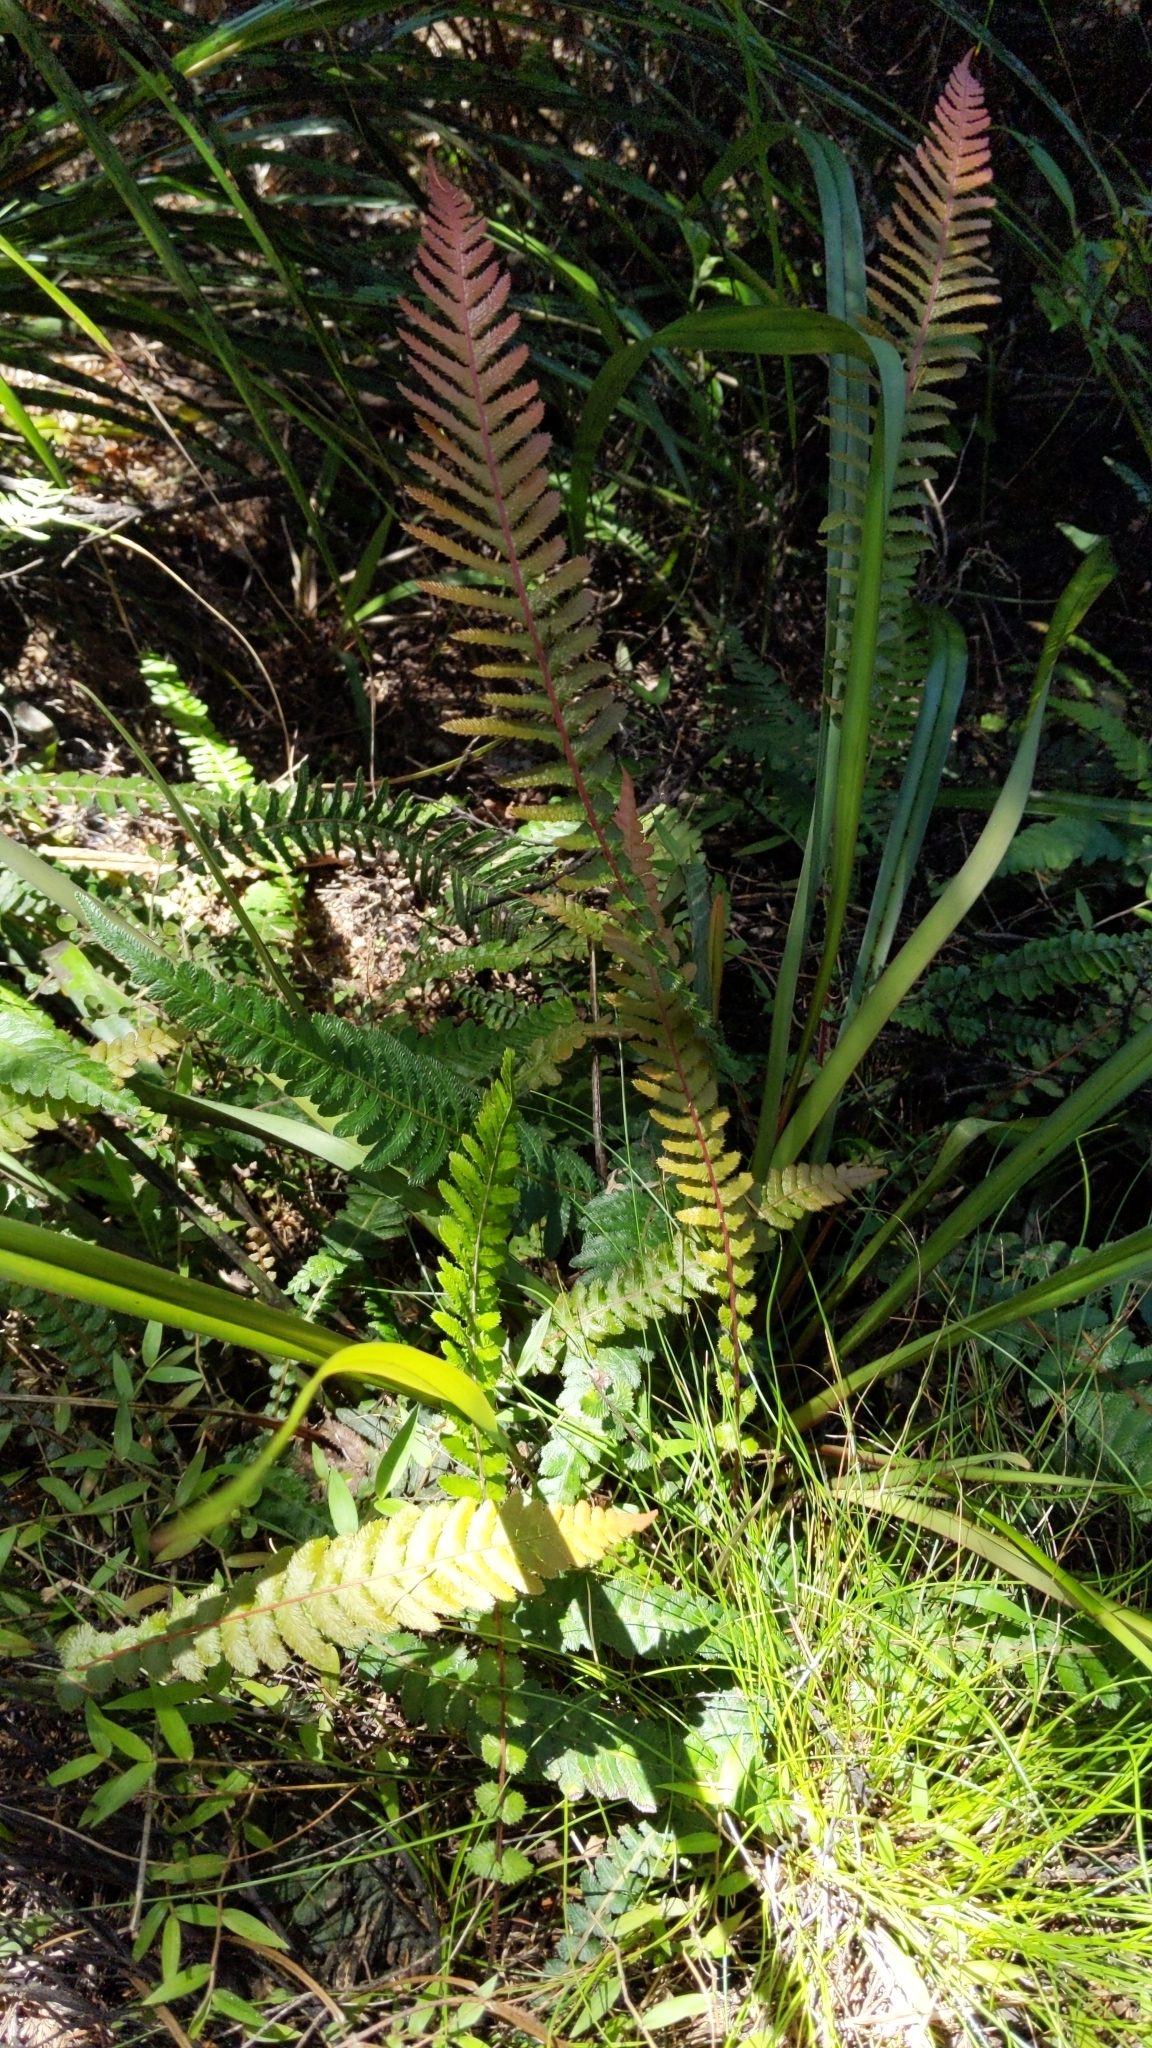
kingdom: Plantae
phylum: Tracheophyta
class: Polypodiopsida
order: Polypodiales
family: Blechnaceae
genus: Doodia
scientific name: Doodia australis
